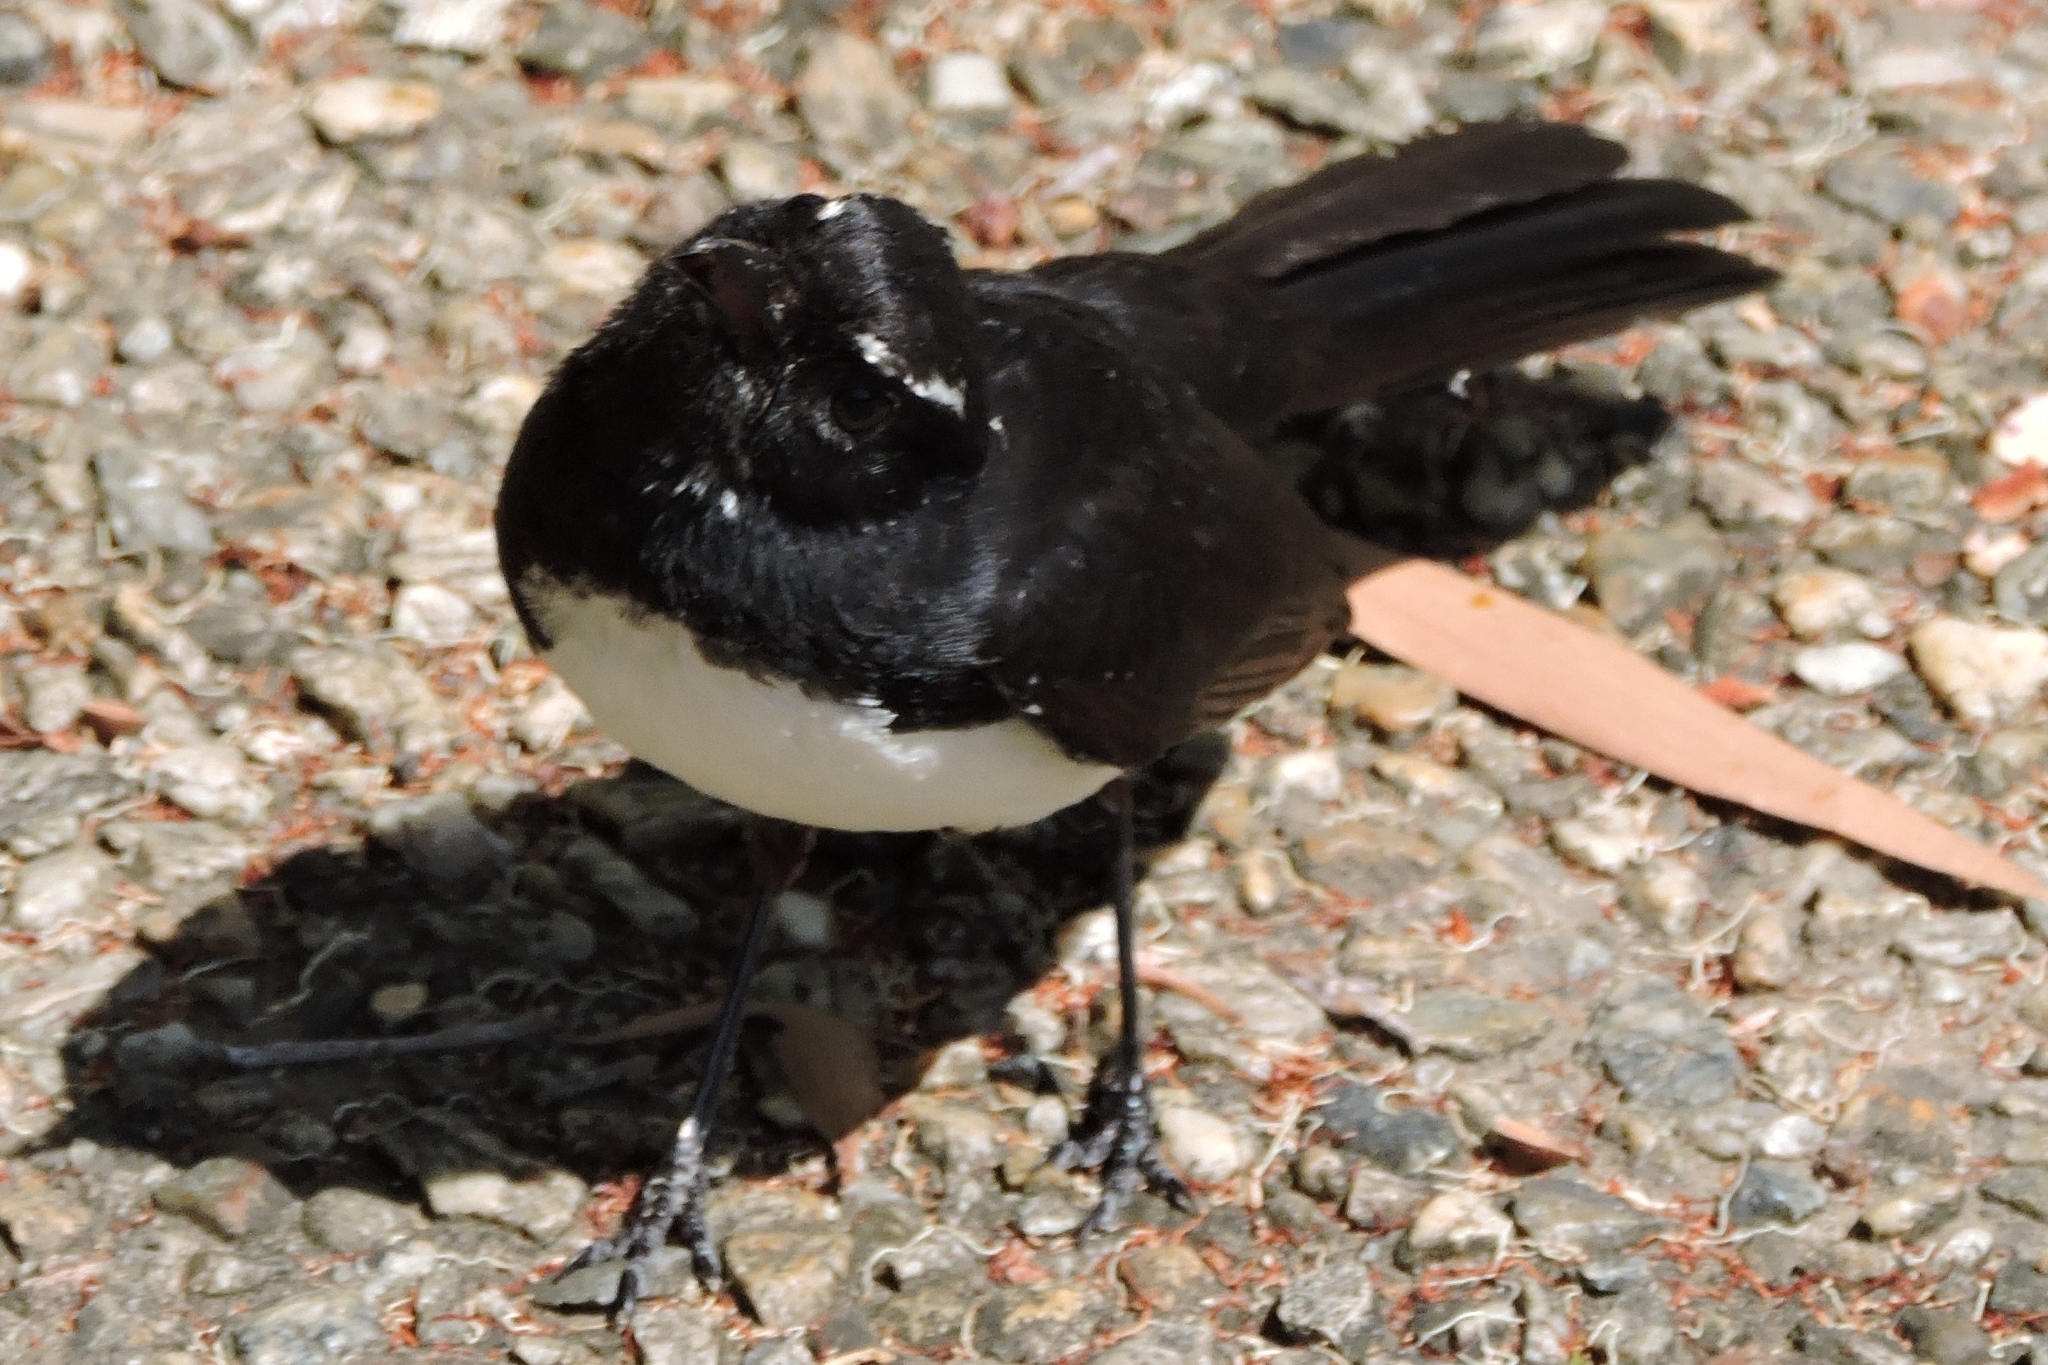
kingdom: Animalia
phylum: Chordata
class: Aves
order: Passeriformes
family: Rhipiduridae
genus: Rhipidura
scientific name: Rhipidura leucophrys
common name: Willie wagtail
